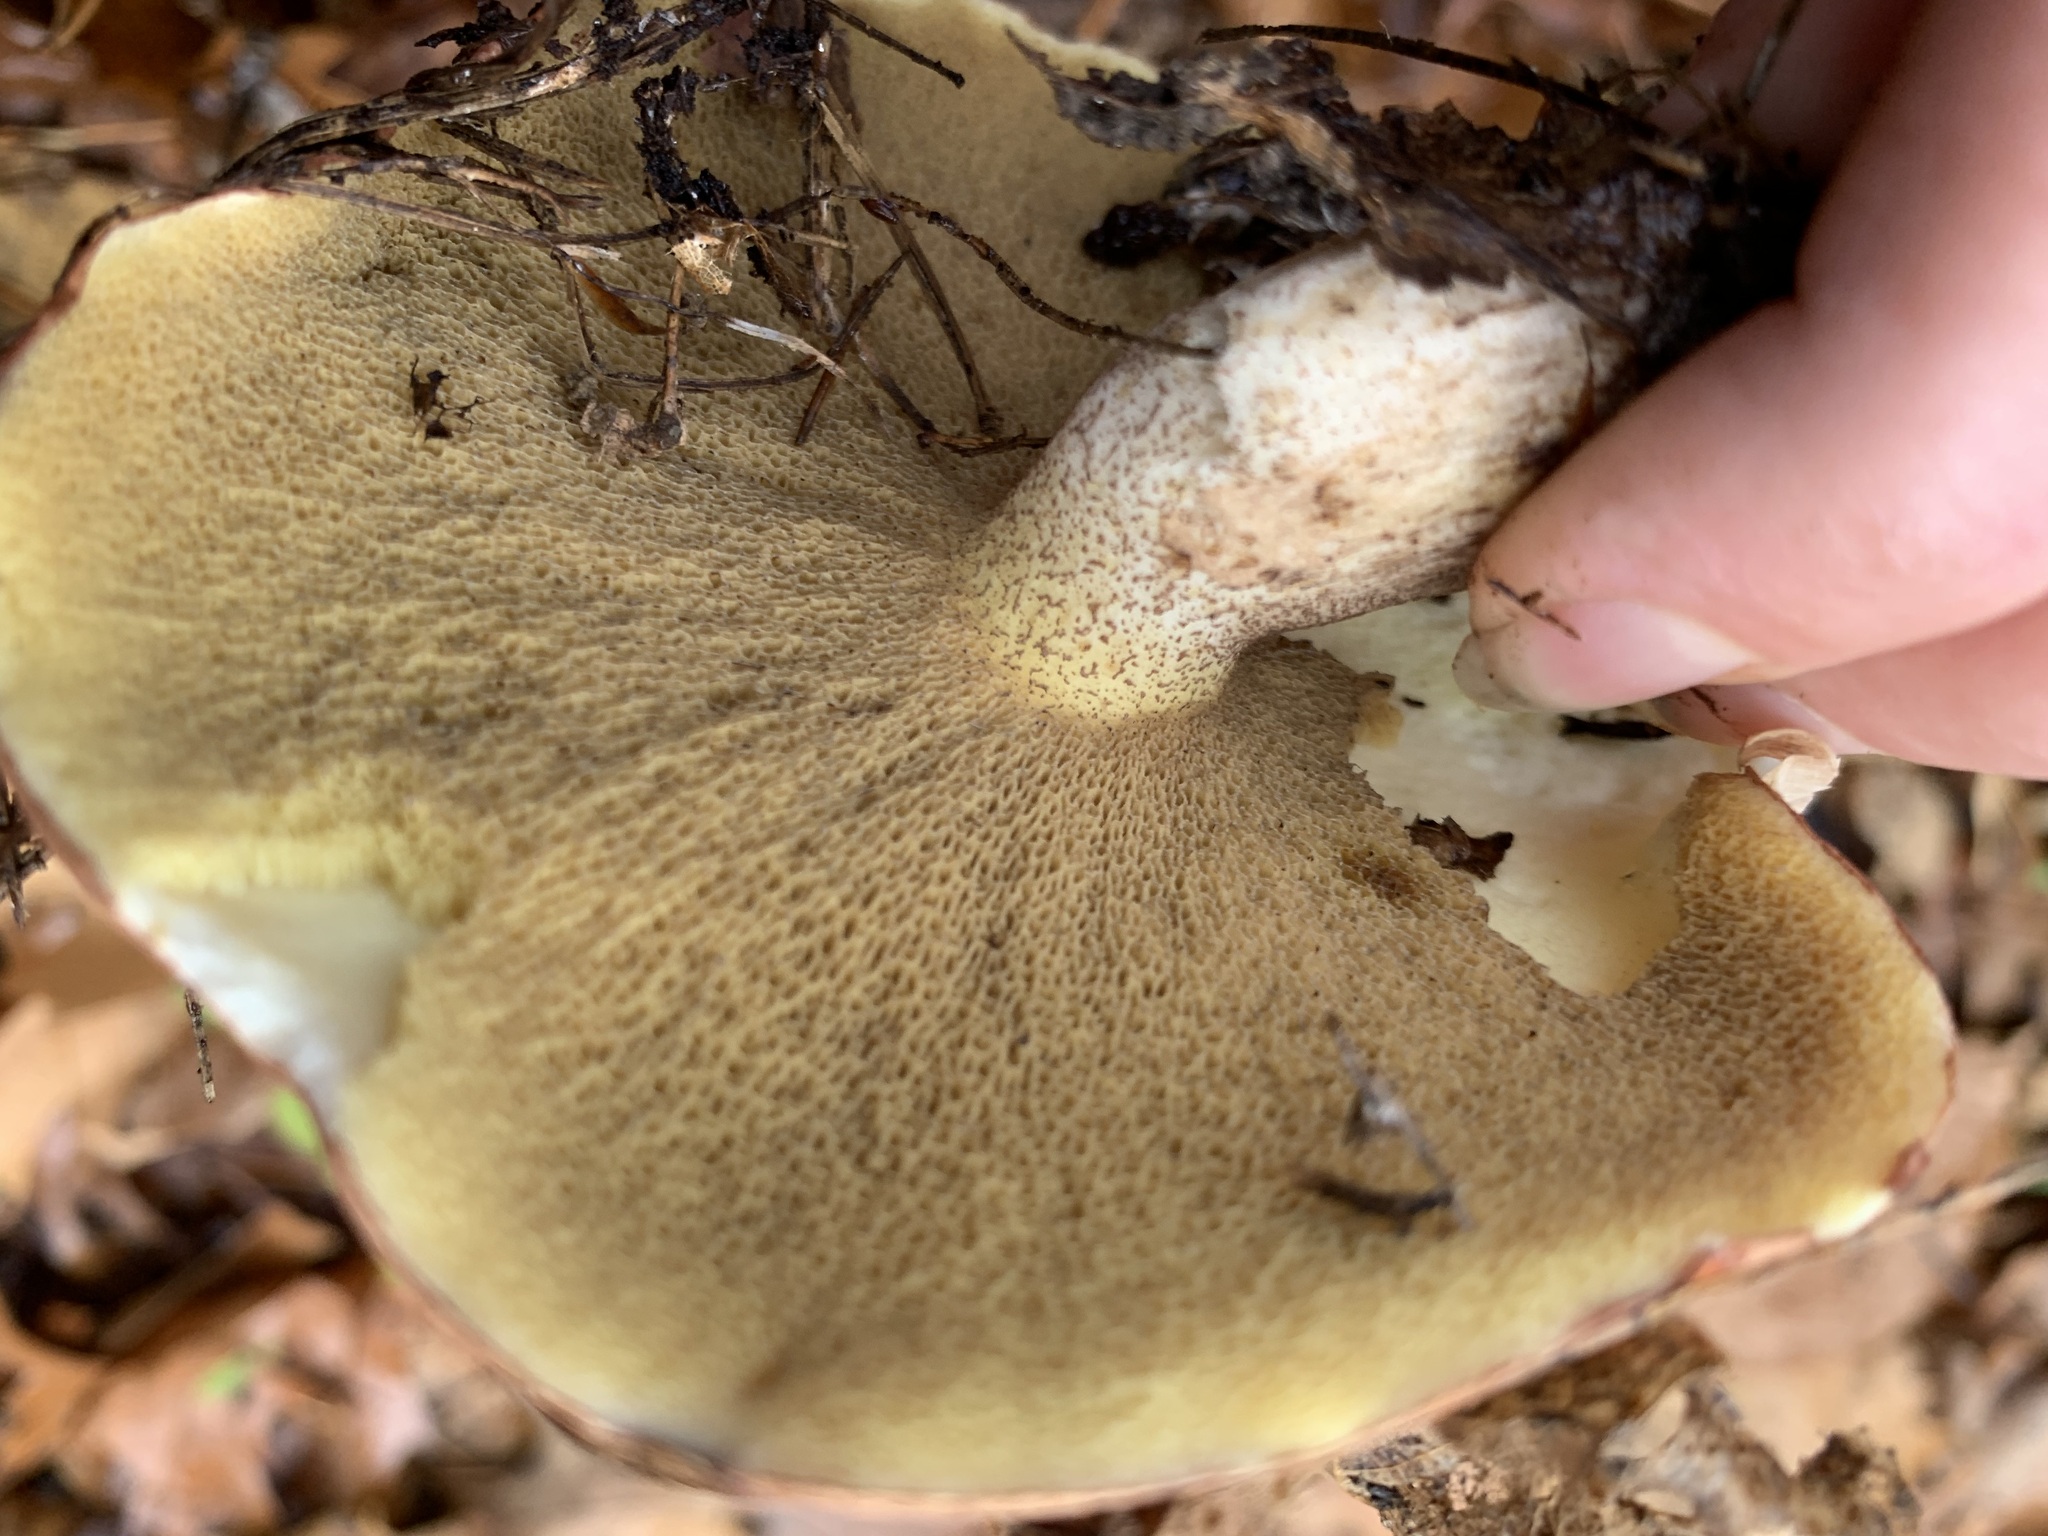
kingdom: Fungi
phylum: Basidiomycota
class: Agaricomycetes
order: Boletales
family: Suillaceae
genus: Fuscoboletinus
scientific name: Fuscoboletinus weaverae
